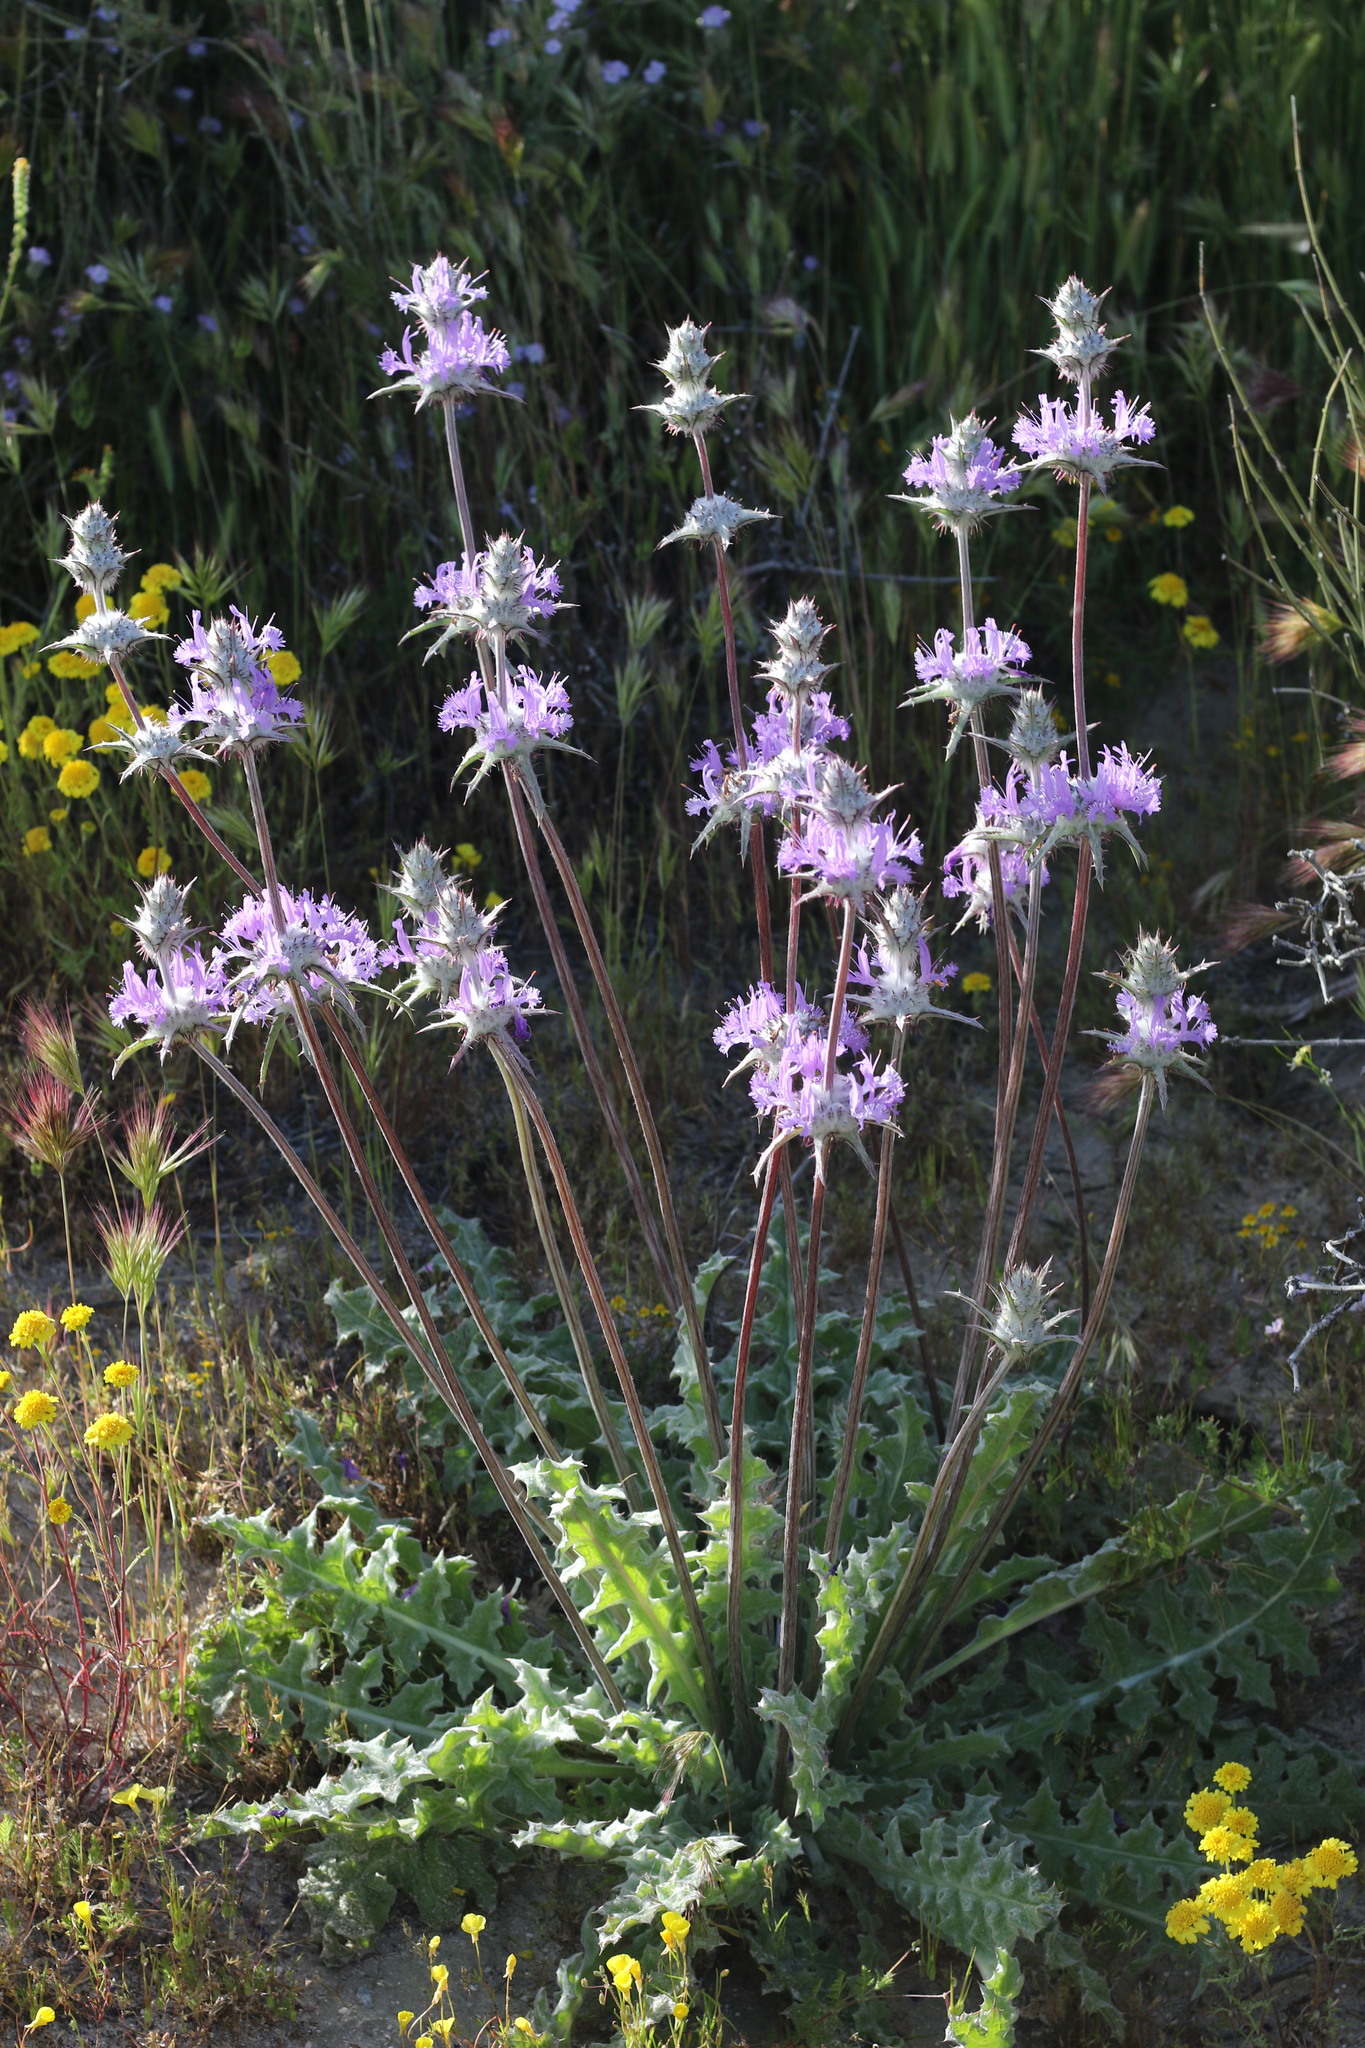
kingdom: Plantae
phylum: Tracheophyta
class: Magnoliopsida
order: Lamiales
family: Lamiaceae
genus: Salvia
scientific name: Salvia carduacea
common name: Thistle sage
